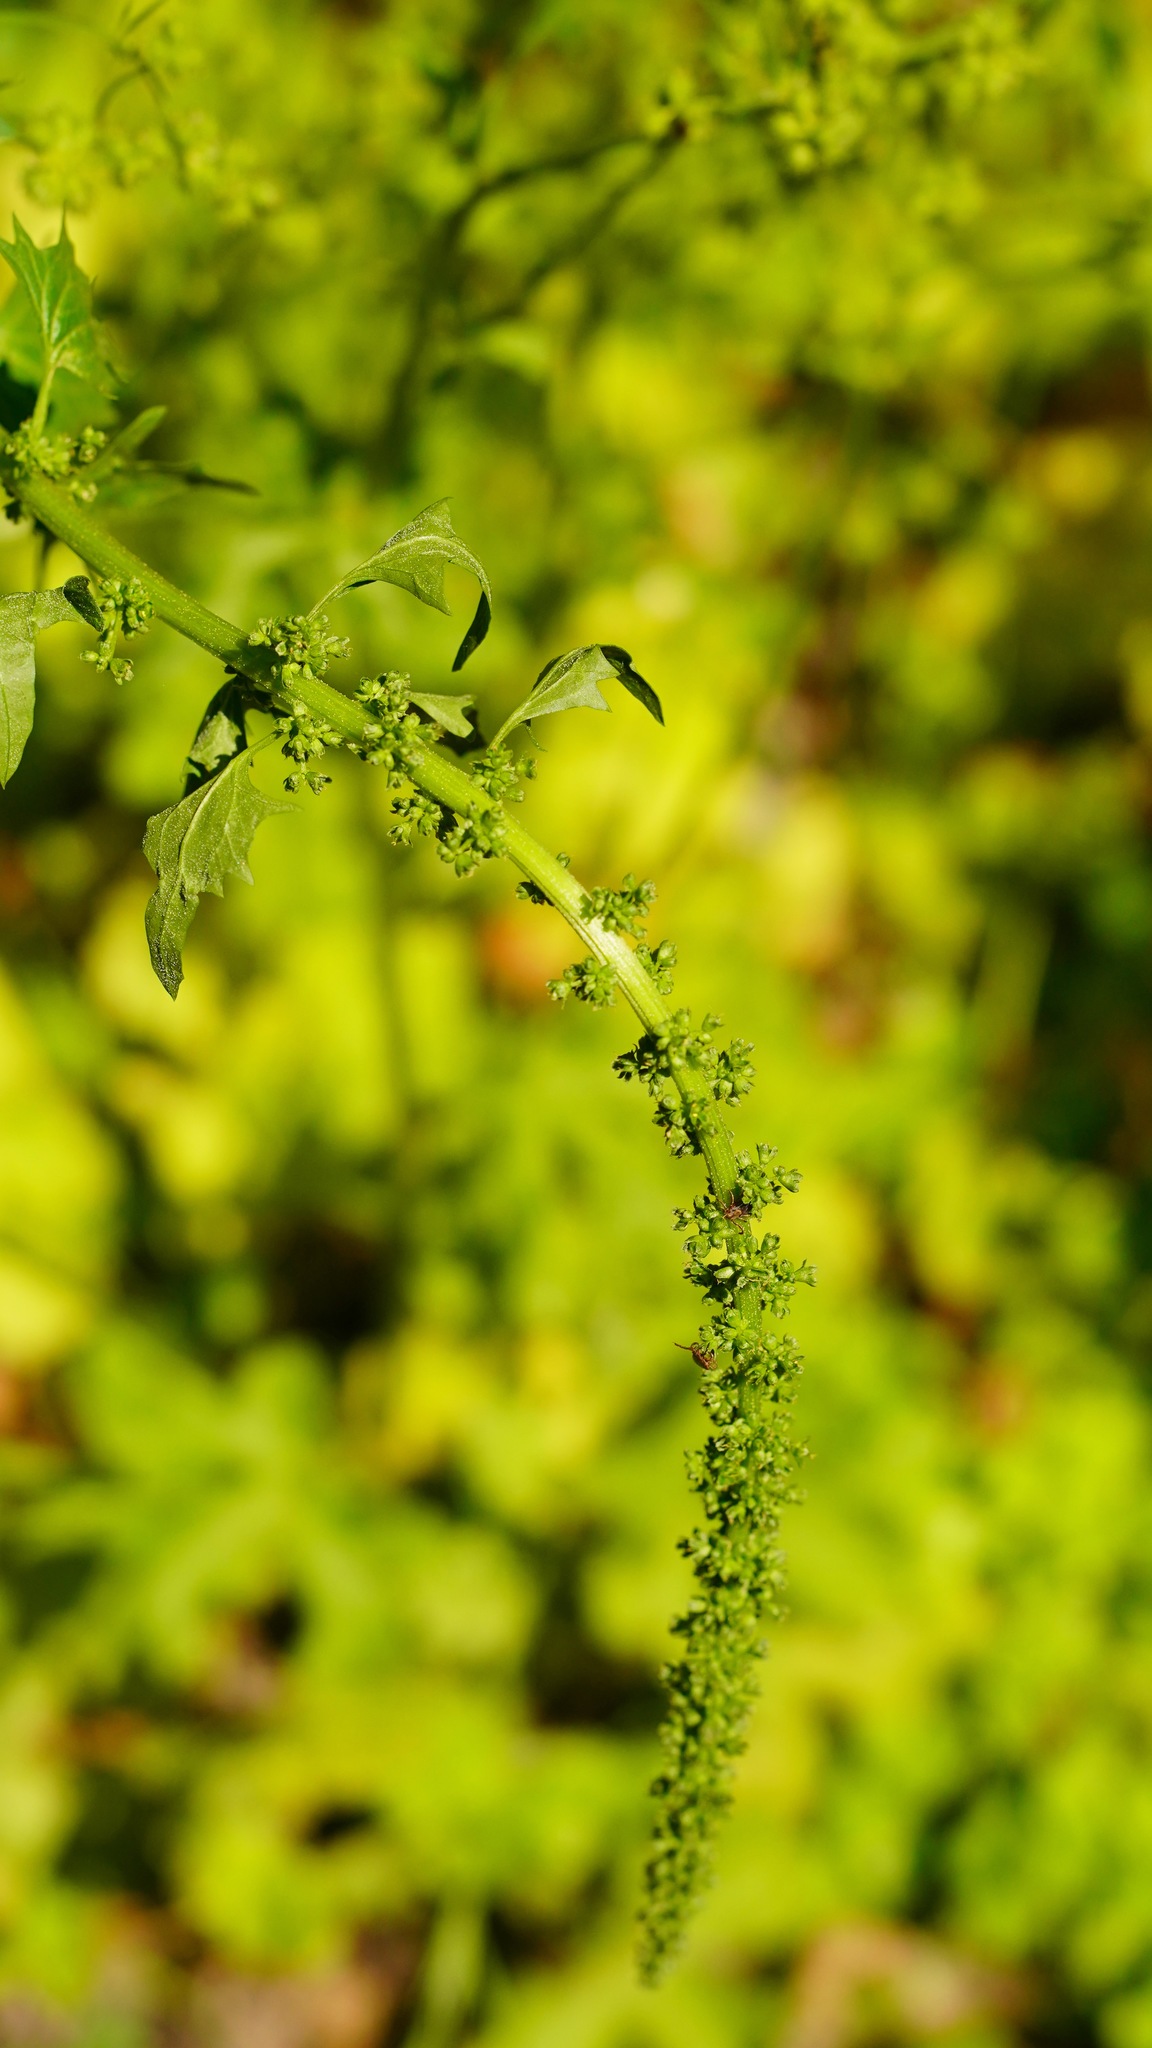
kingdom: Plantae
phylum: Tracheophyta
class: Magnoliopsida
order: Caryophyllales
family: Amaranthaceae
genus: Blitum
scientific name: Blitum californicum
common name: California goosefoot
